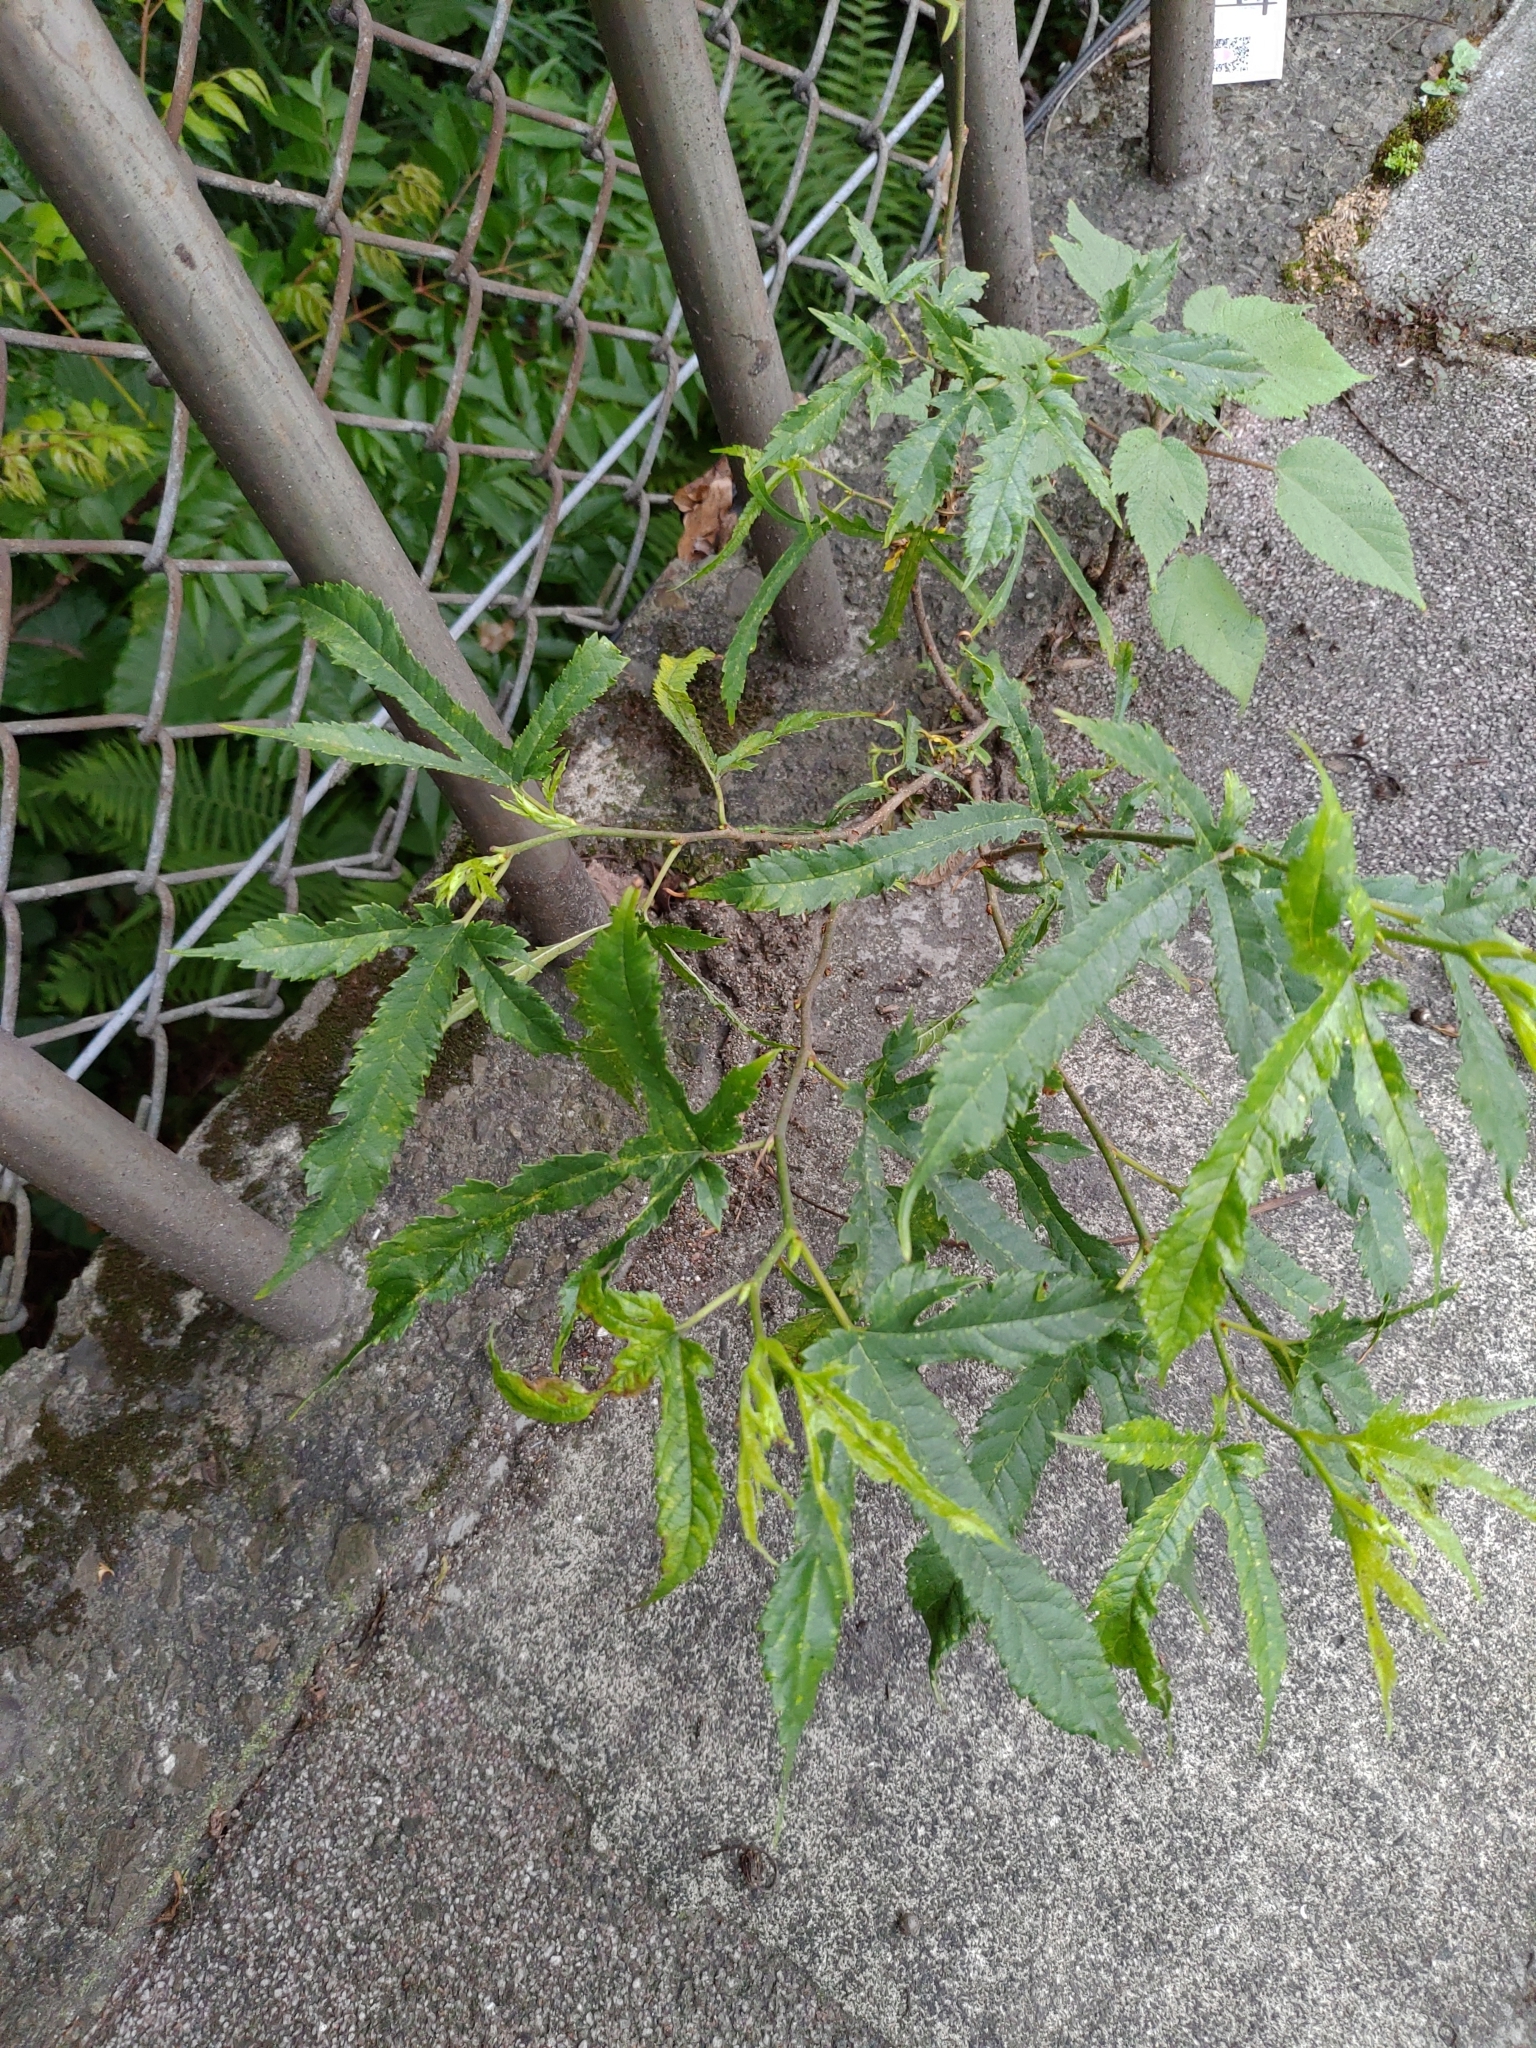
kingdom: Plantae
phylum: Tracheophyta
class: Magnoliopsida
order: Rosales
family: Moraceae
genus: Morus
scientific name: Morus indica
